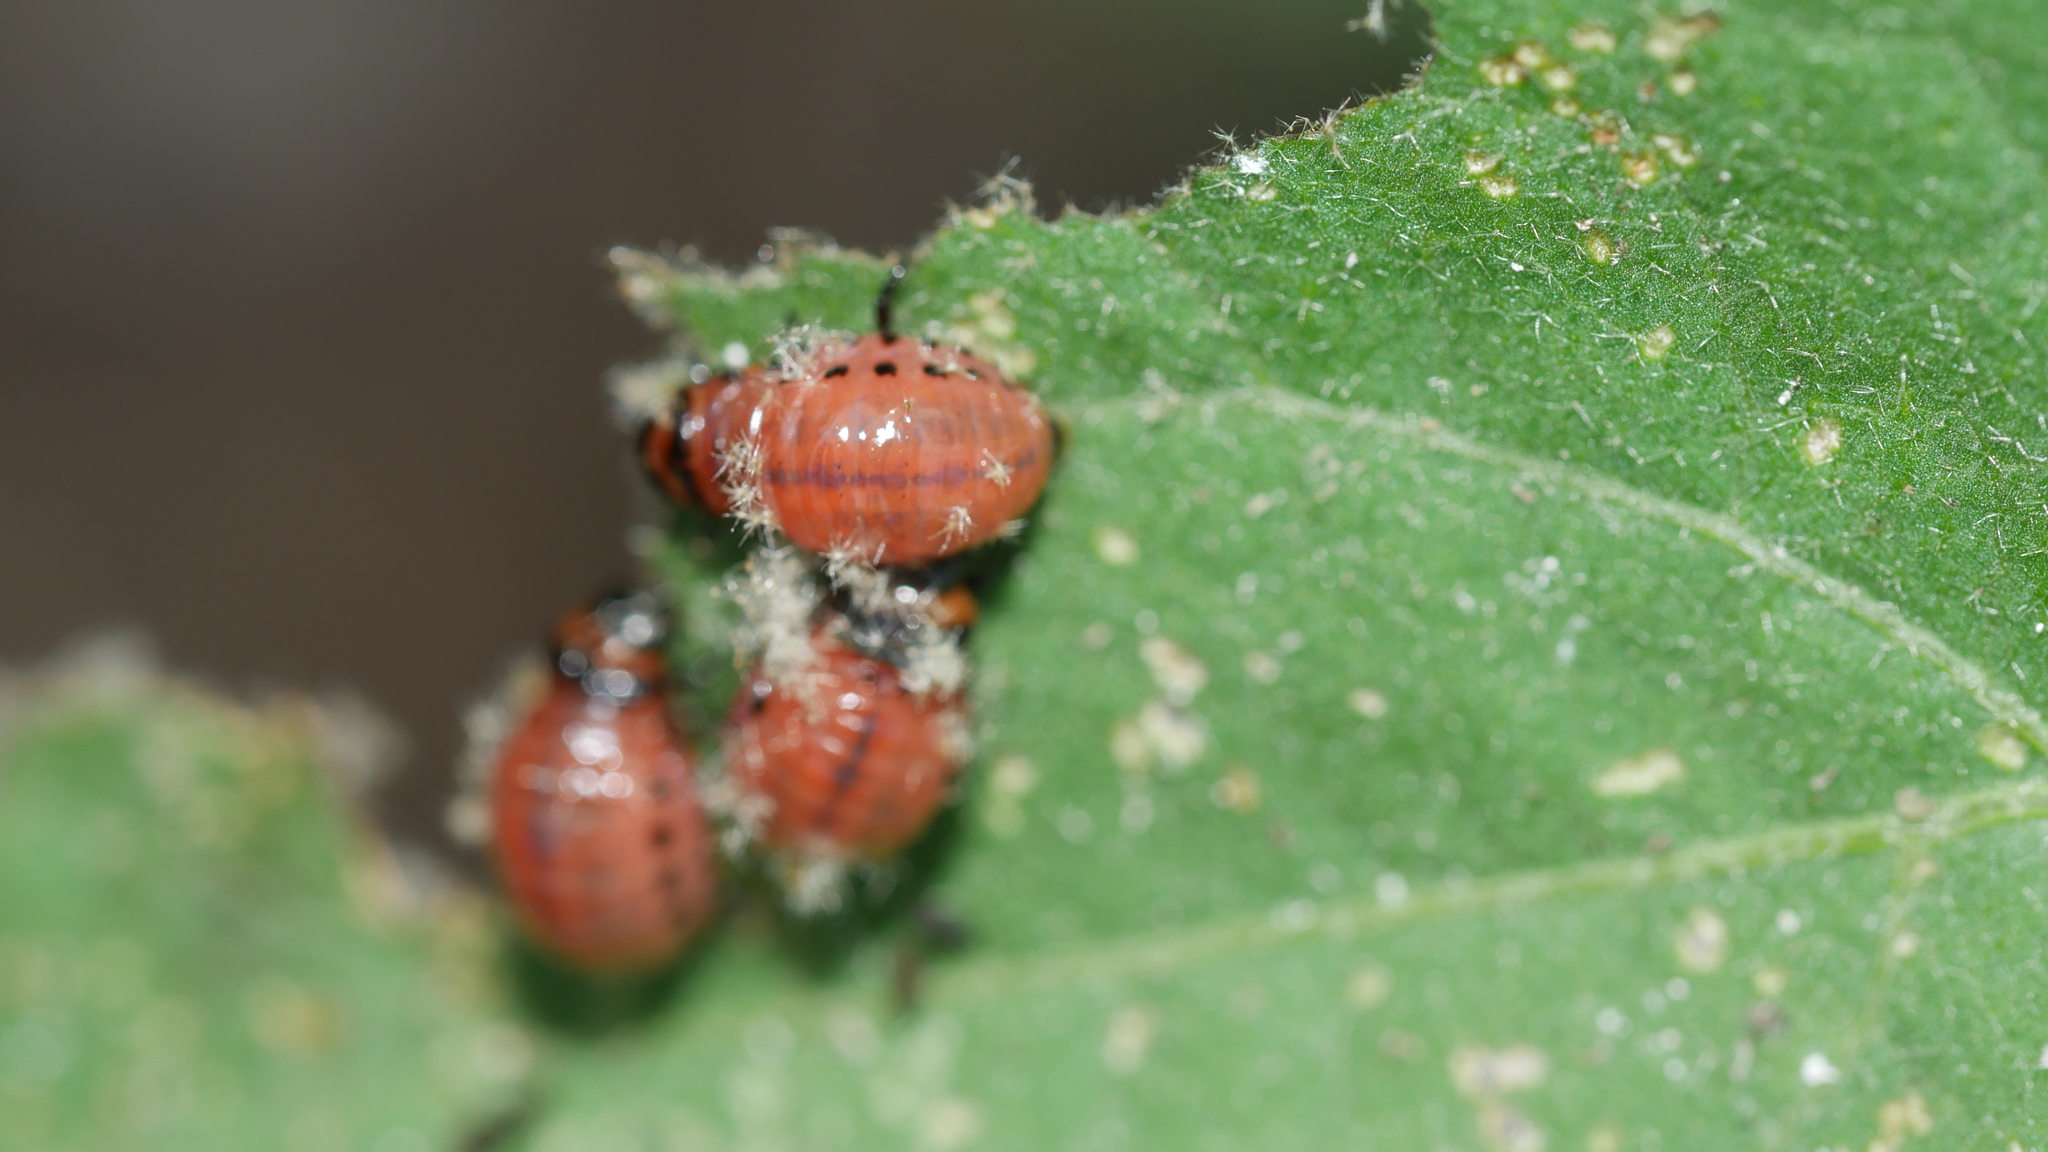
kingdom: Animalia
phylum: Arthropoda
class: Insecta
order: Coleoptera
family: Chrysomelidae
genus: Leptinotarsa
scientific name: Leptinotarsa decemlineata
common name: Colorado potato beetle
